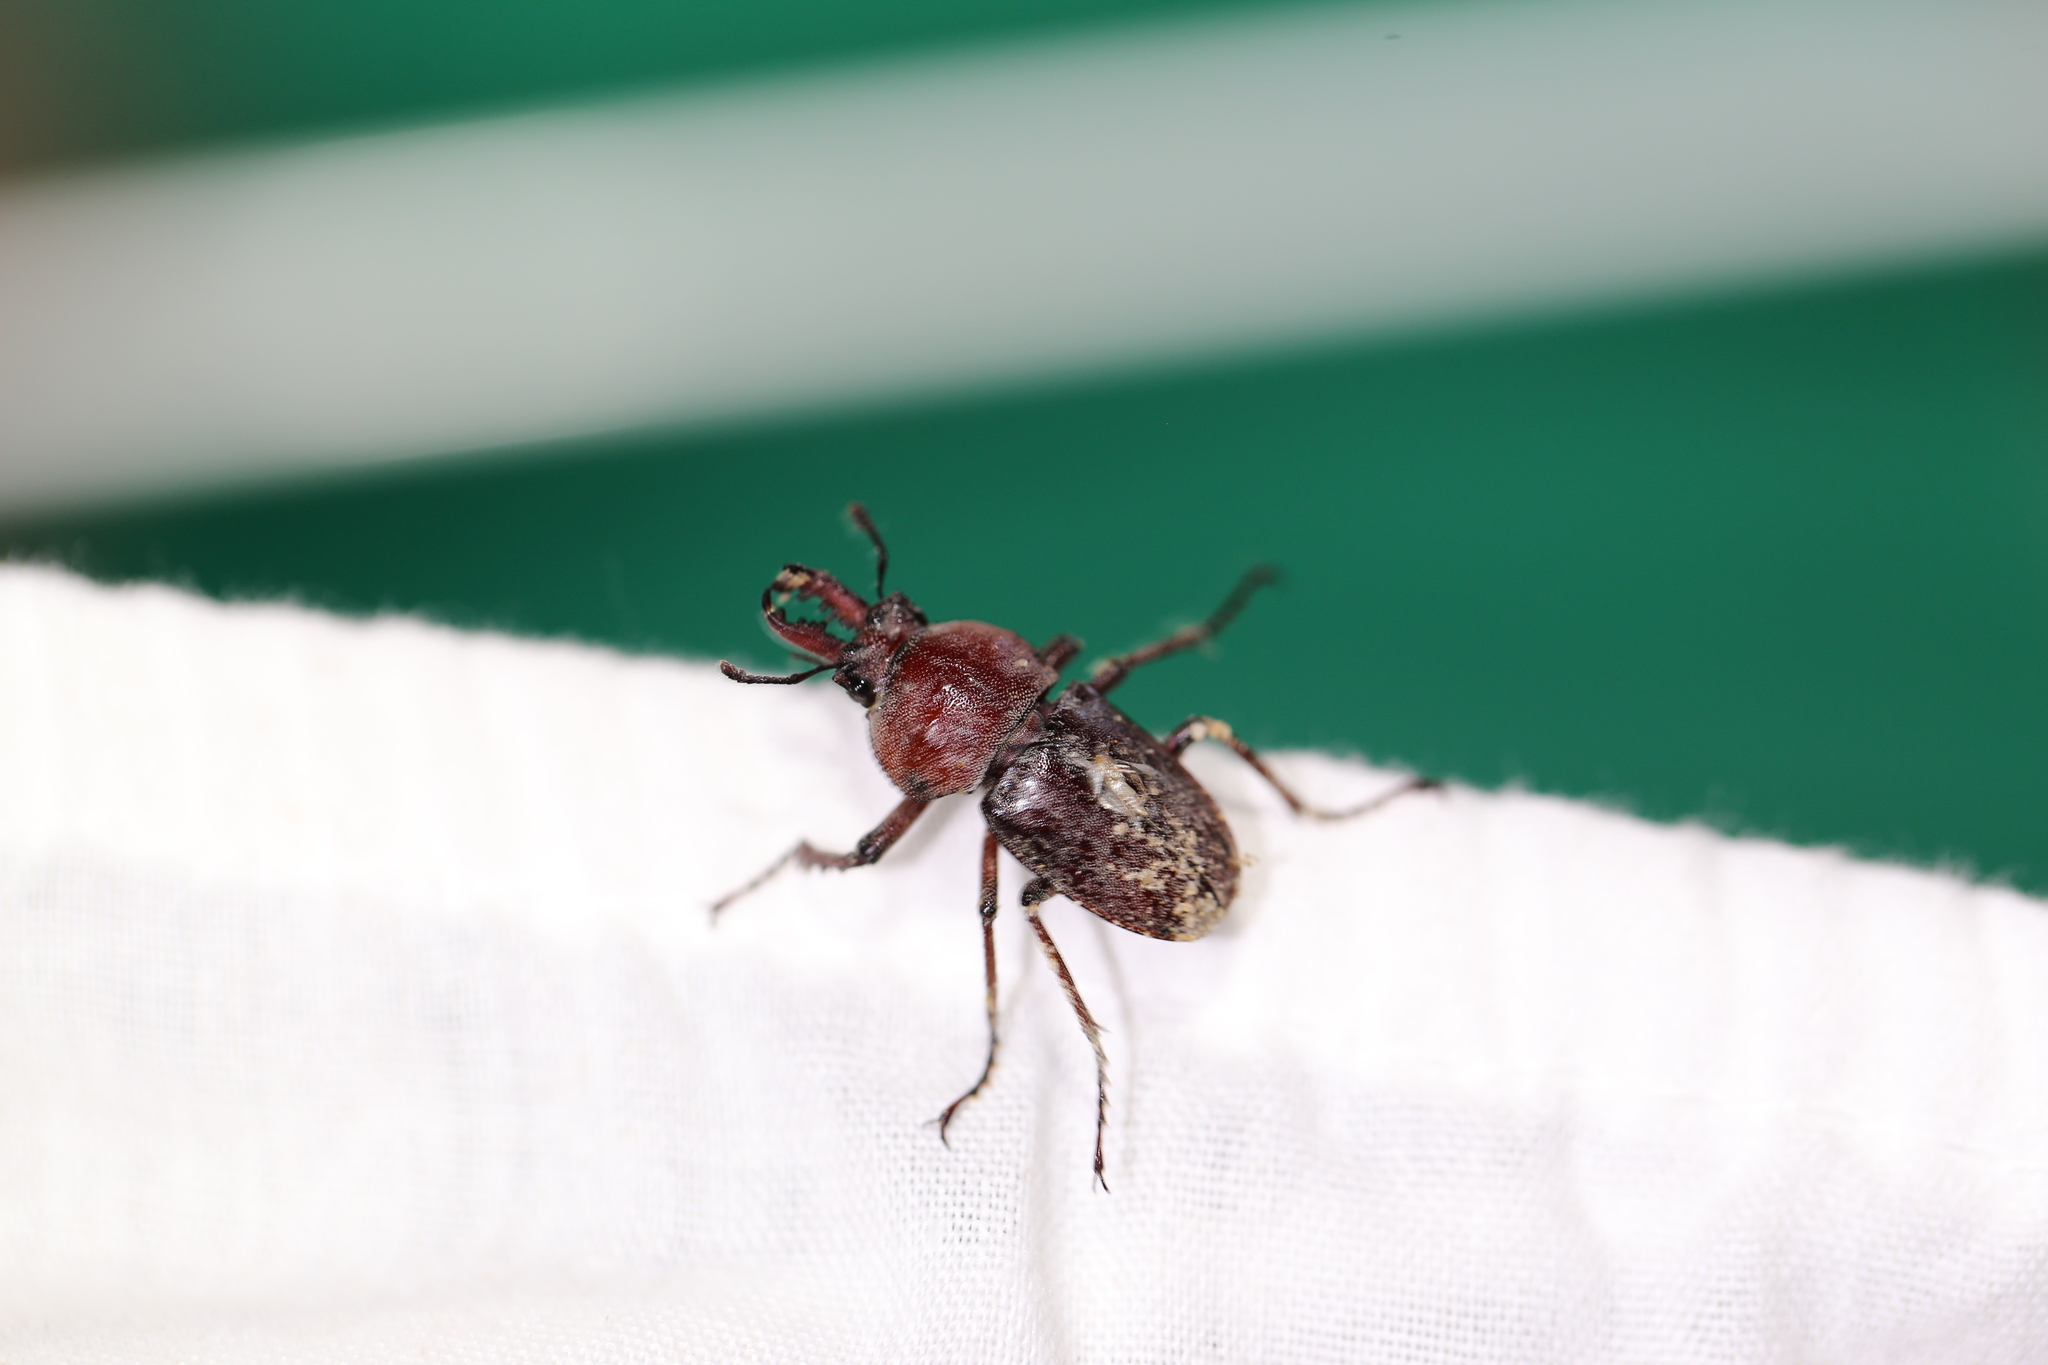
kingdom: Animalia
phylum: Arthropoda
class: Insecta
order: Coleoptera
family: Lucanidae
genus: Cacostomus
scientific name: Cacostomus squamosus
